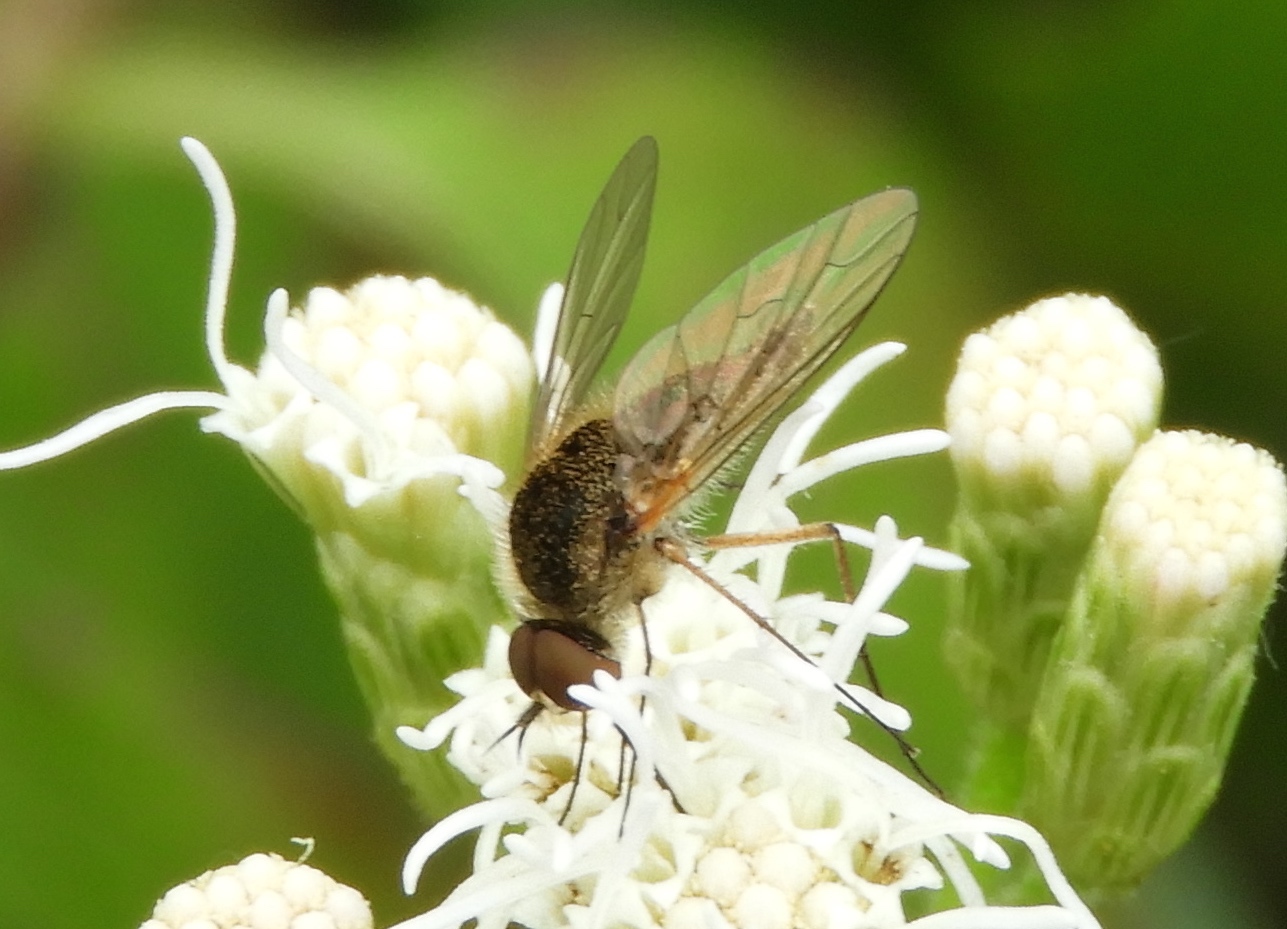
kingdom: Animalia
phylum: Arthropoda
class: Insecta
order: Diptera
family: Bombyliidae
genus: Geron
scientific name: Geron
